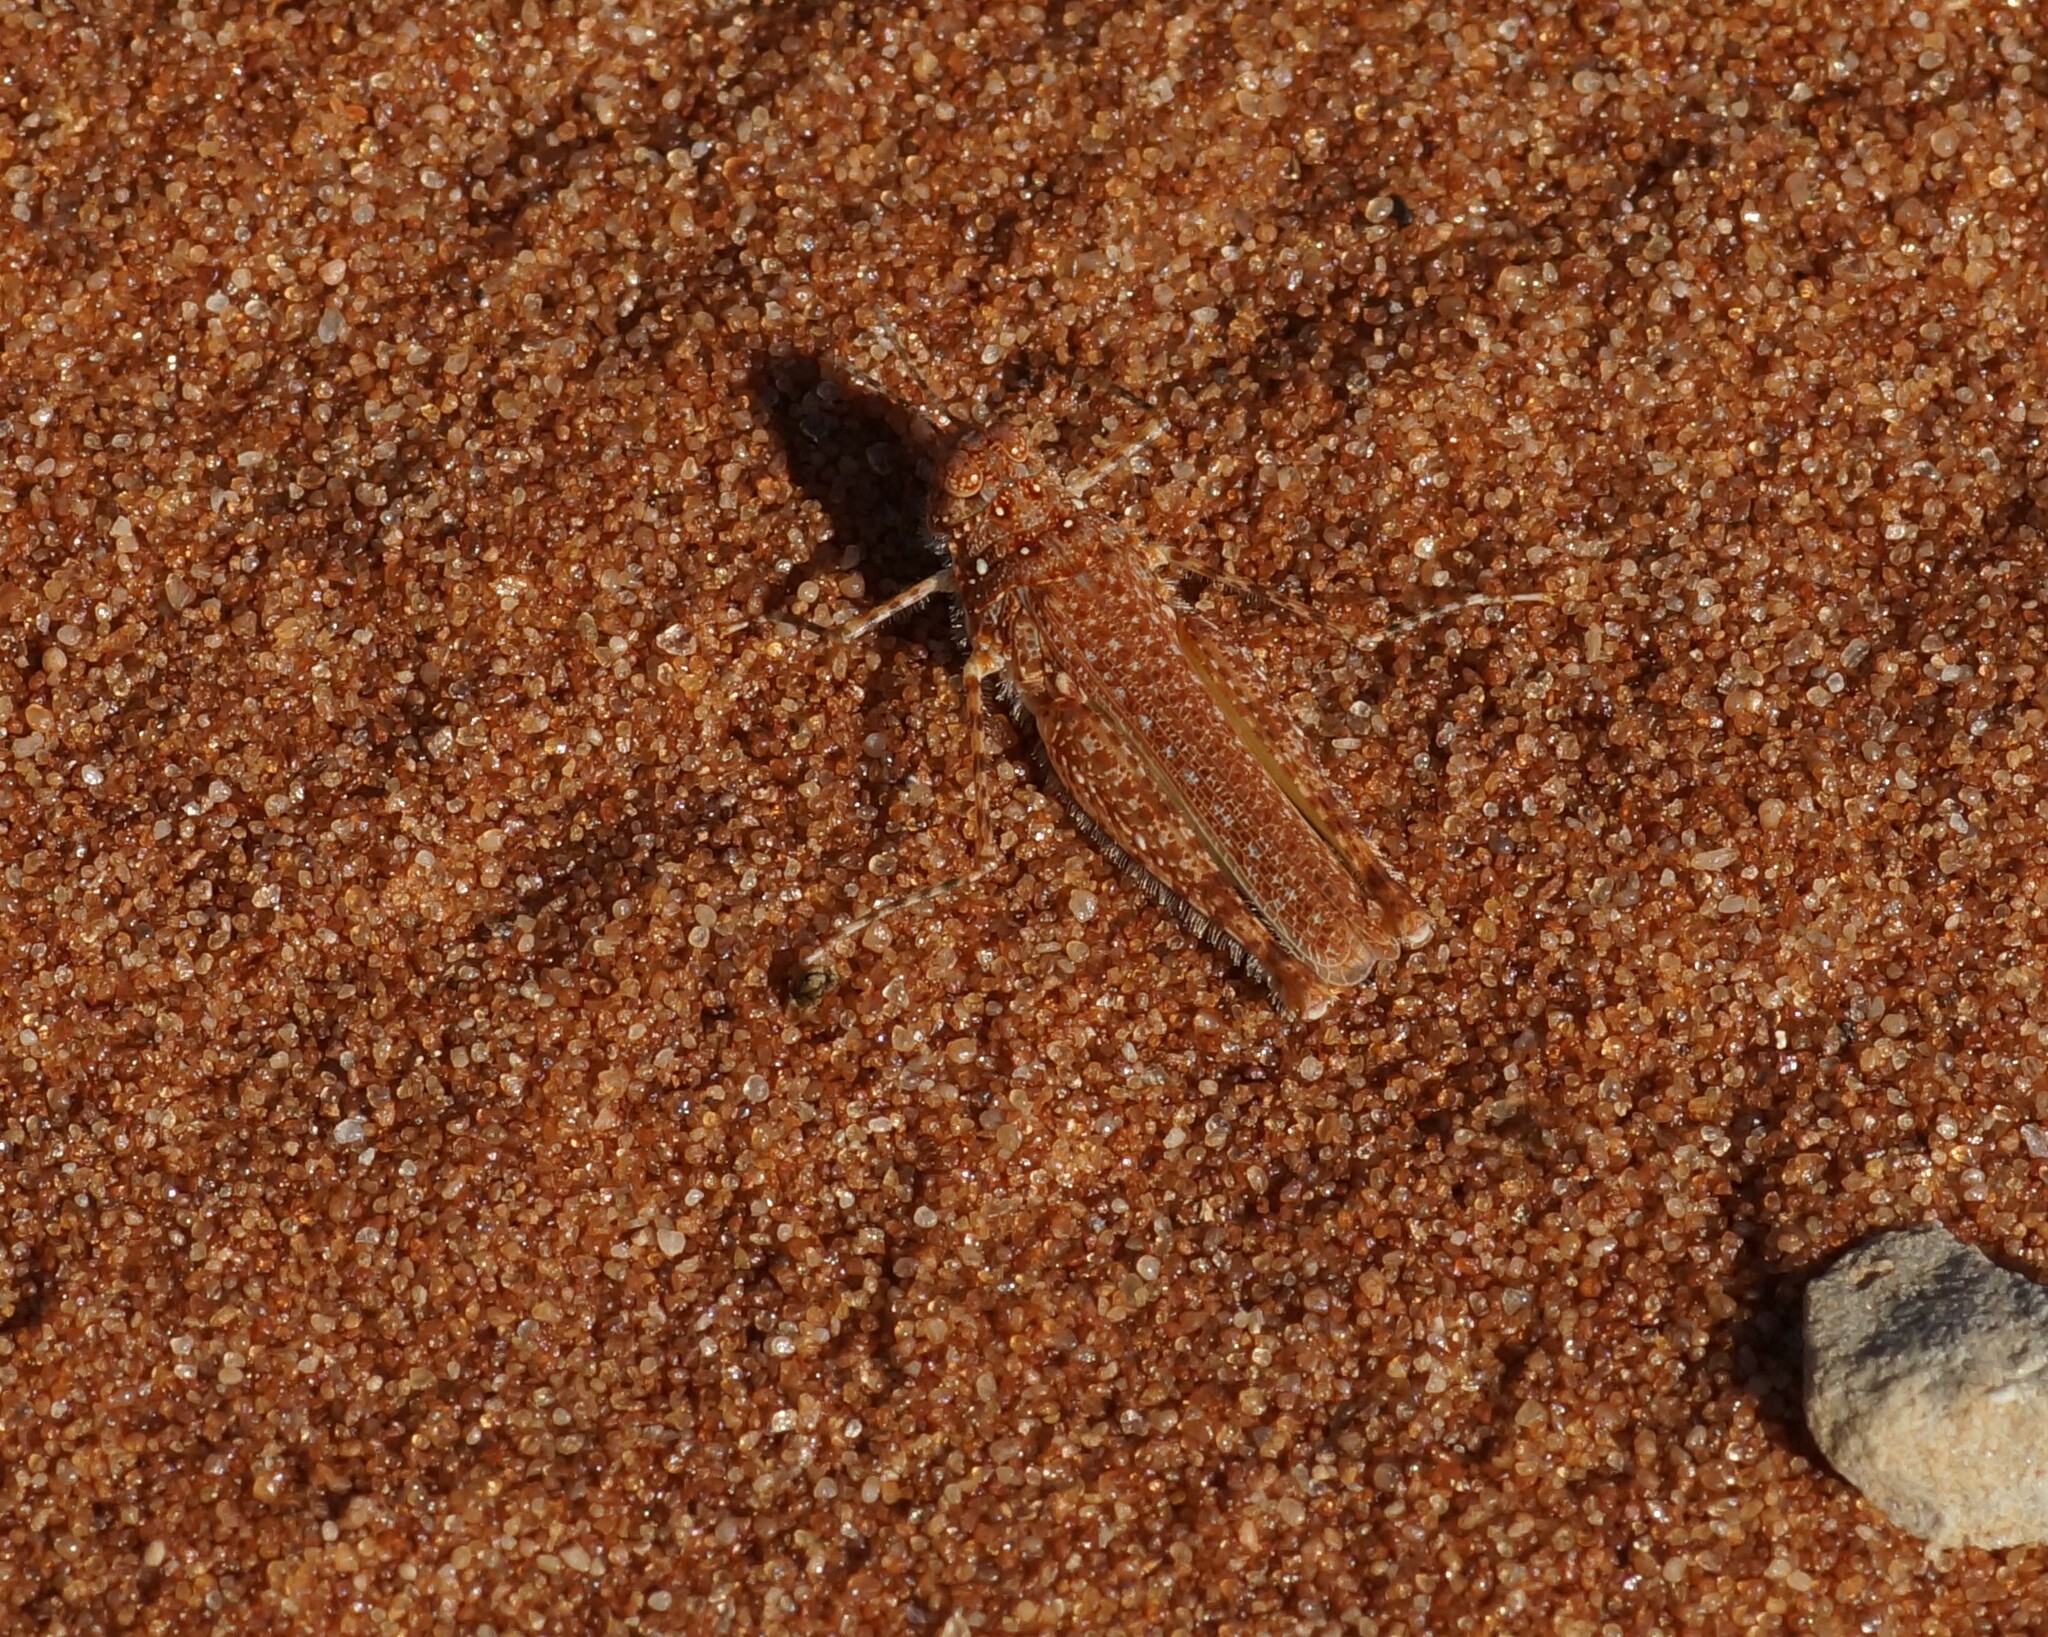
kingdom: Animalia
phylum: Arthropoda
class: Insecta
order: Orthoptera
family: Acrididae
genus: Urnisiella
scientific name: Urnisiella rubropunctata
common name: Long-legged sandhopper
